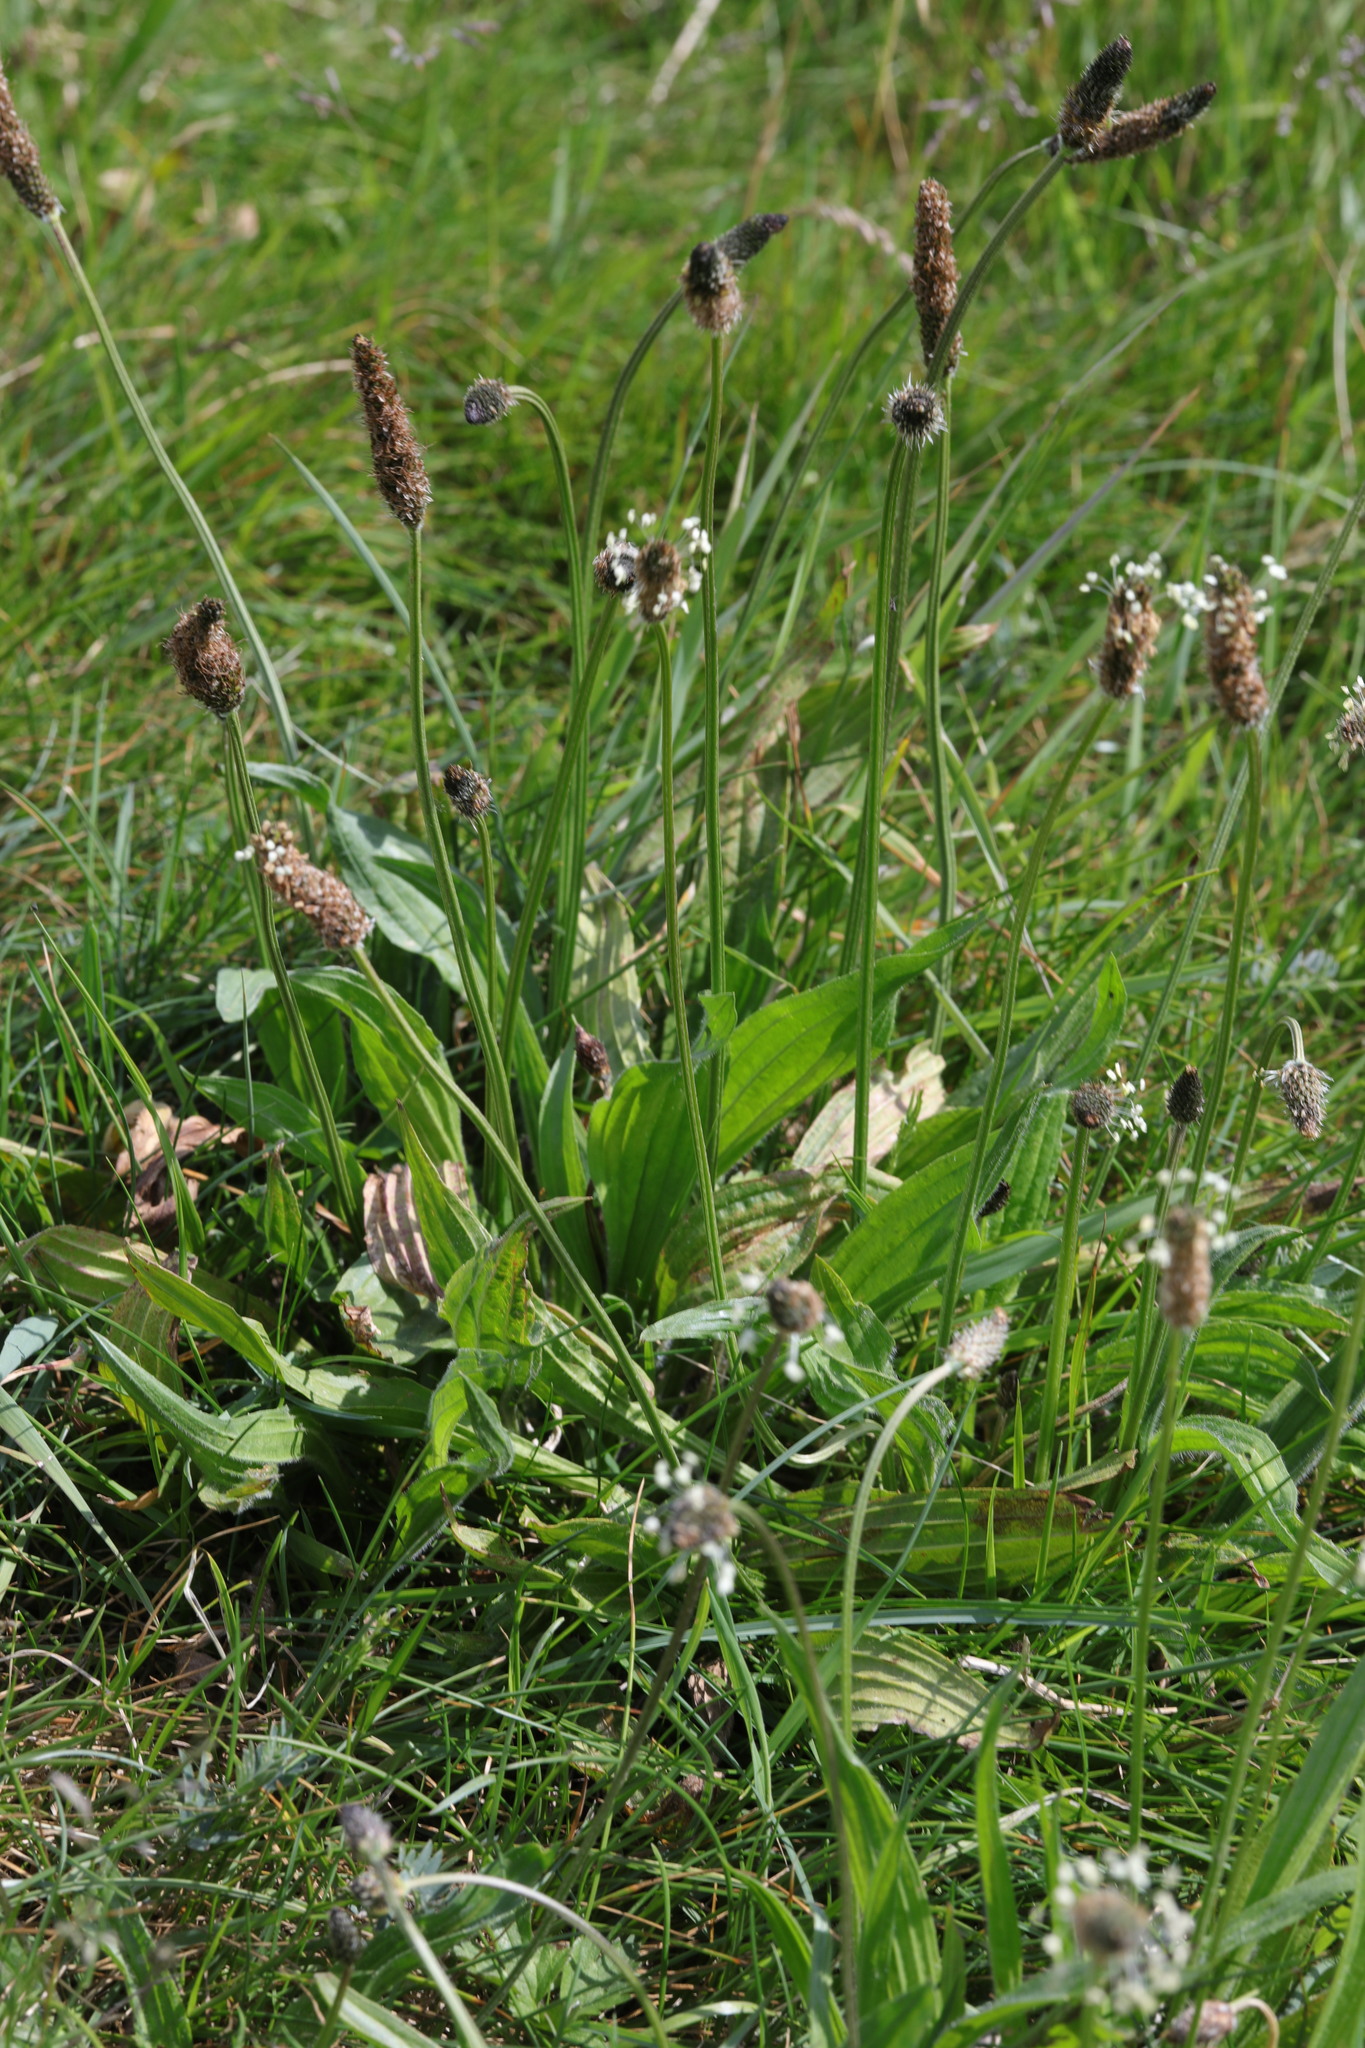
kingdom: Plantae
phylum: Tracheophyta
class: Magnoliopsida
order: Lamiales
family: Plantaginaceae
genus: Plantago
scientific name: Plantago lanceolata
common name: Ribwort plantain
